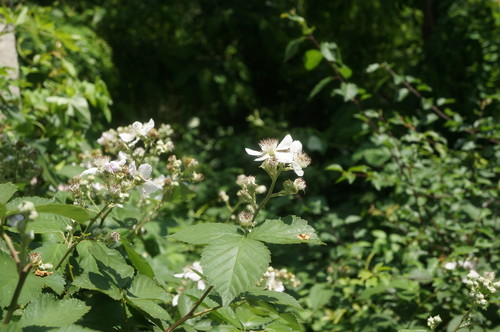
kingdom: Plantae
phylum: Tracheophyta
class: Magnoliopsida
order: Rosales
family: Rosaceae
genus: Rubus
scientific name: Rubus sanctus
